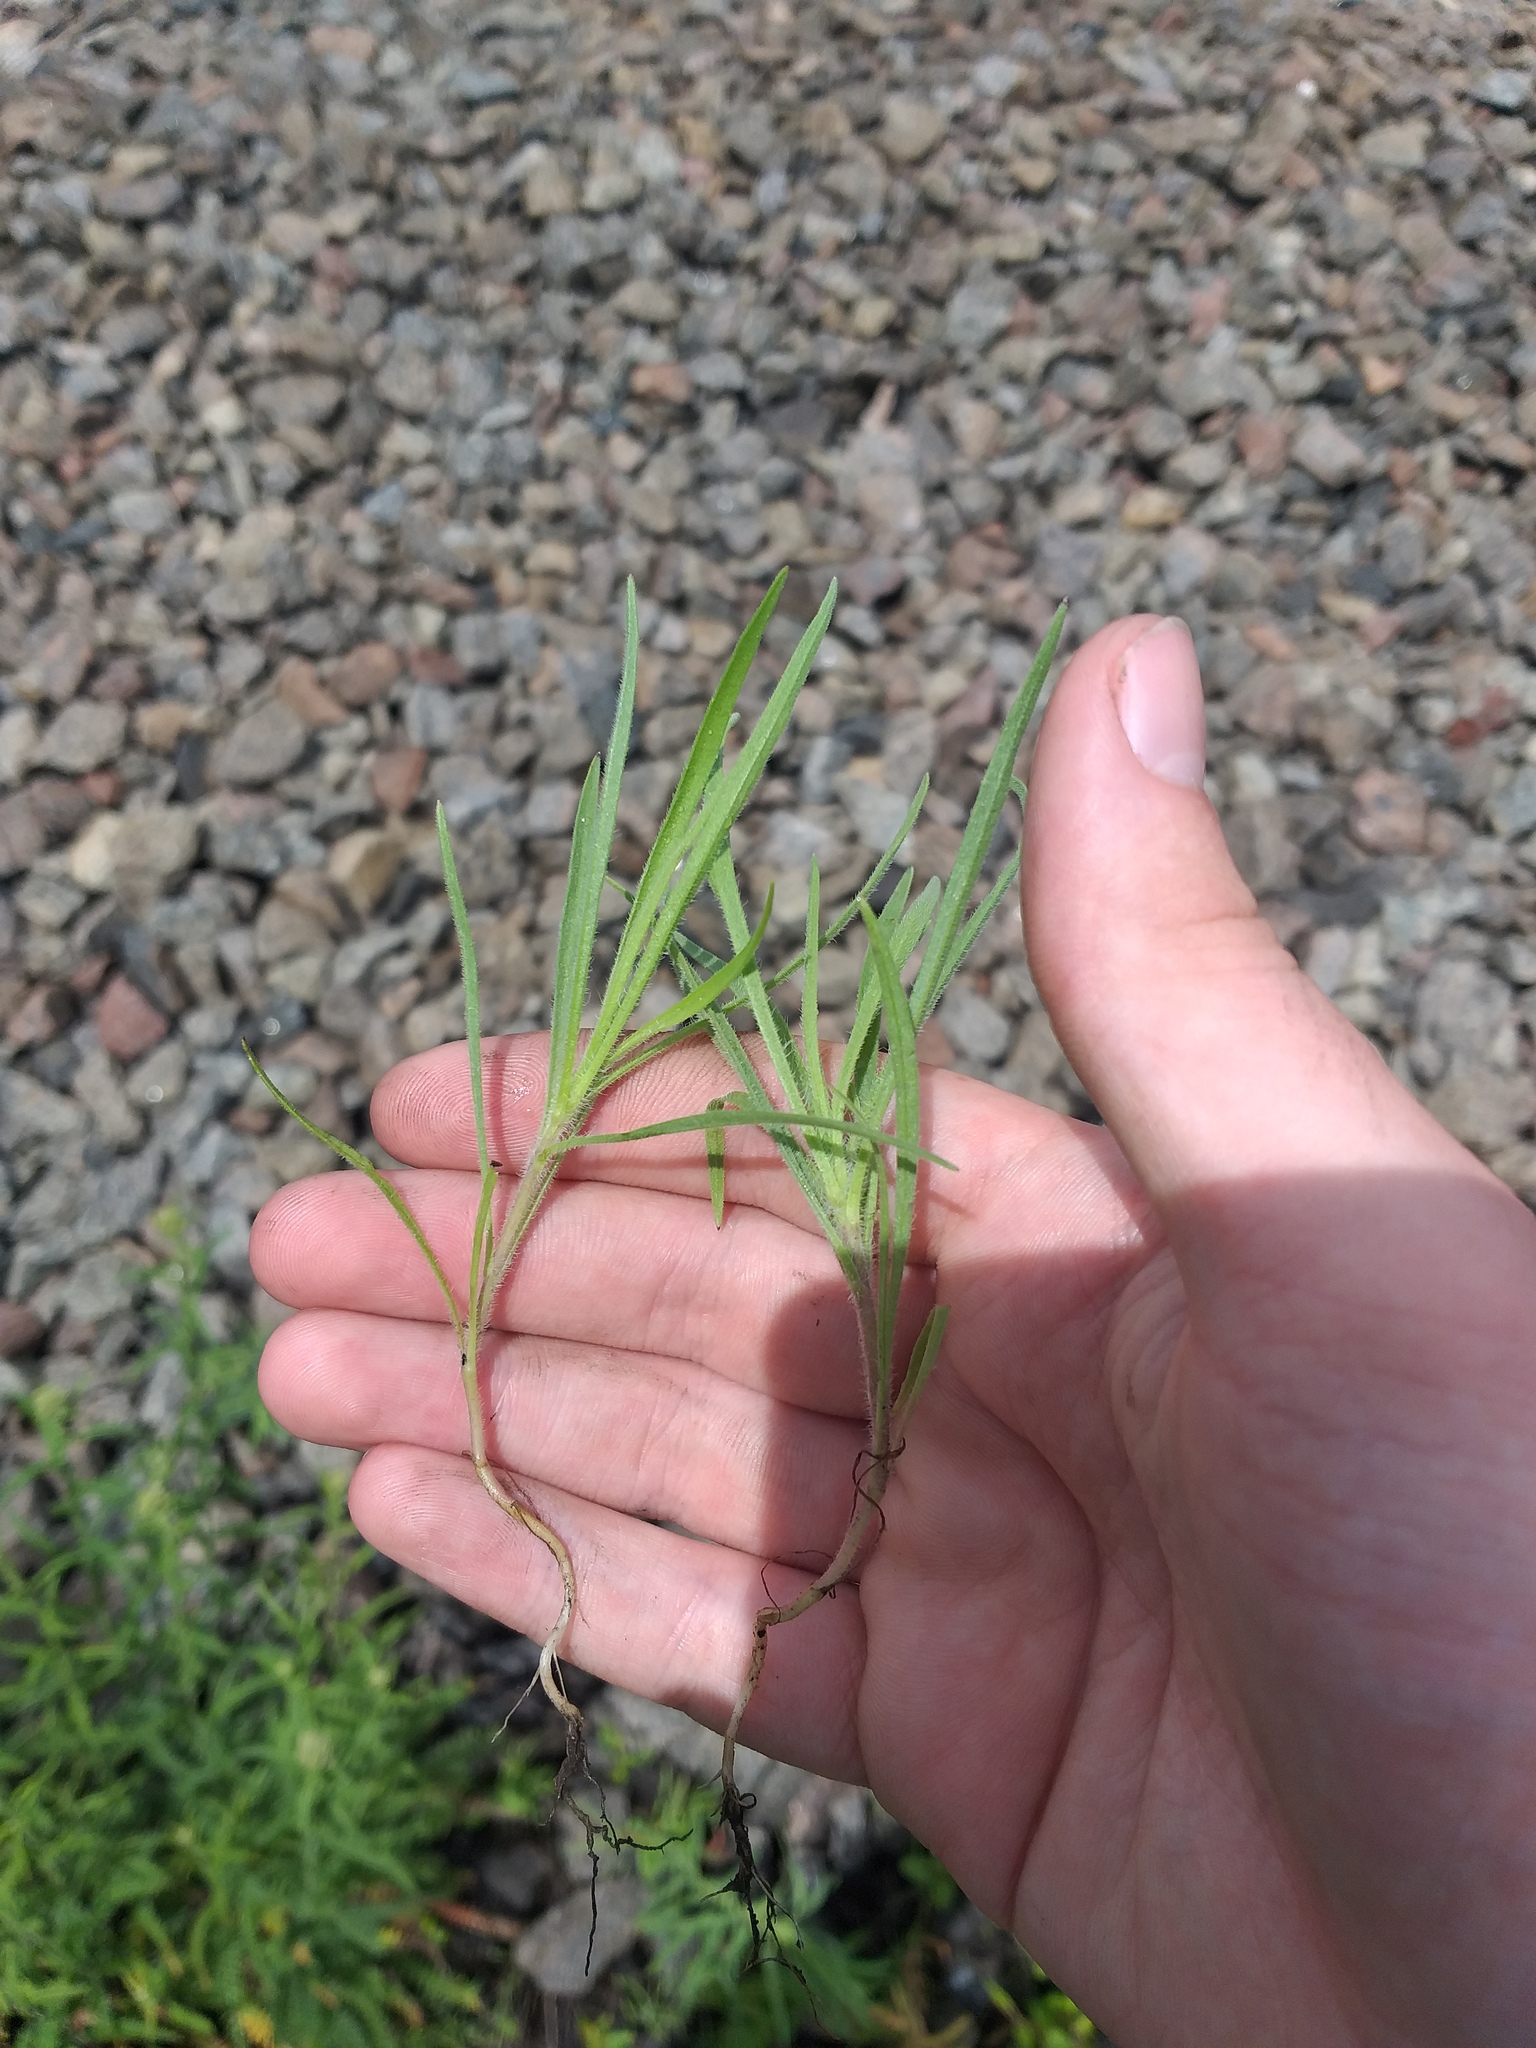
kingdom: Plantae
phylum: Tracheophyta
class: Magnoliopsida
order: Lamiales
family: Plantaginaceae
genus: Plantago
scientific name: Plantago arenaria
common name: Branched plantain
